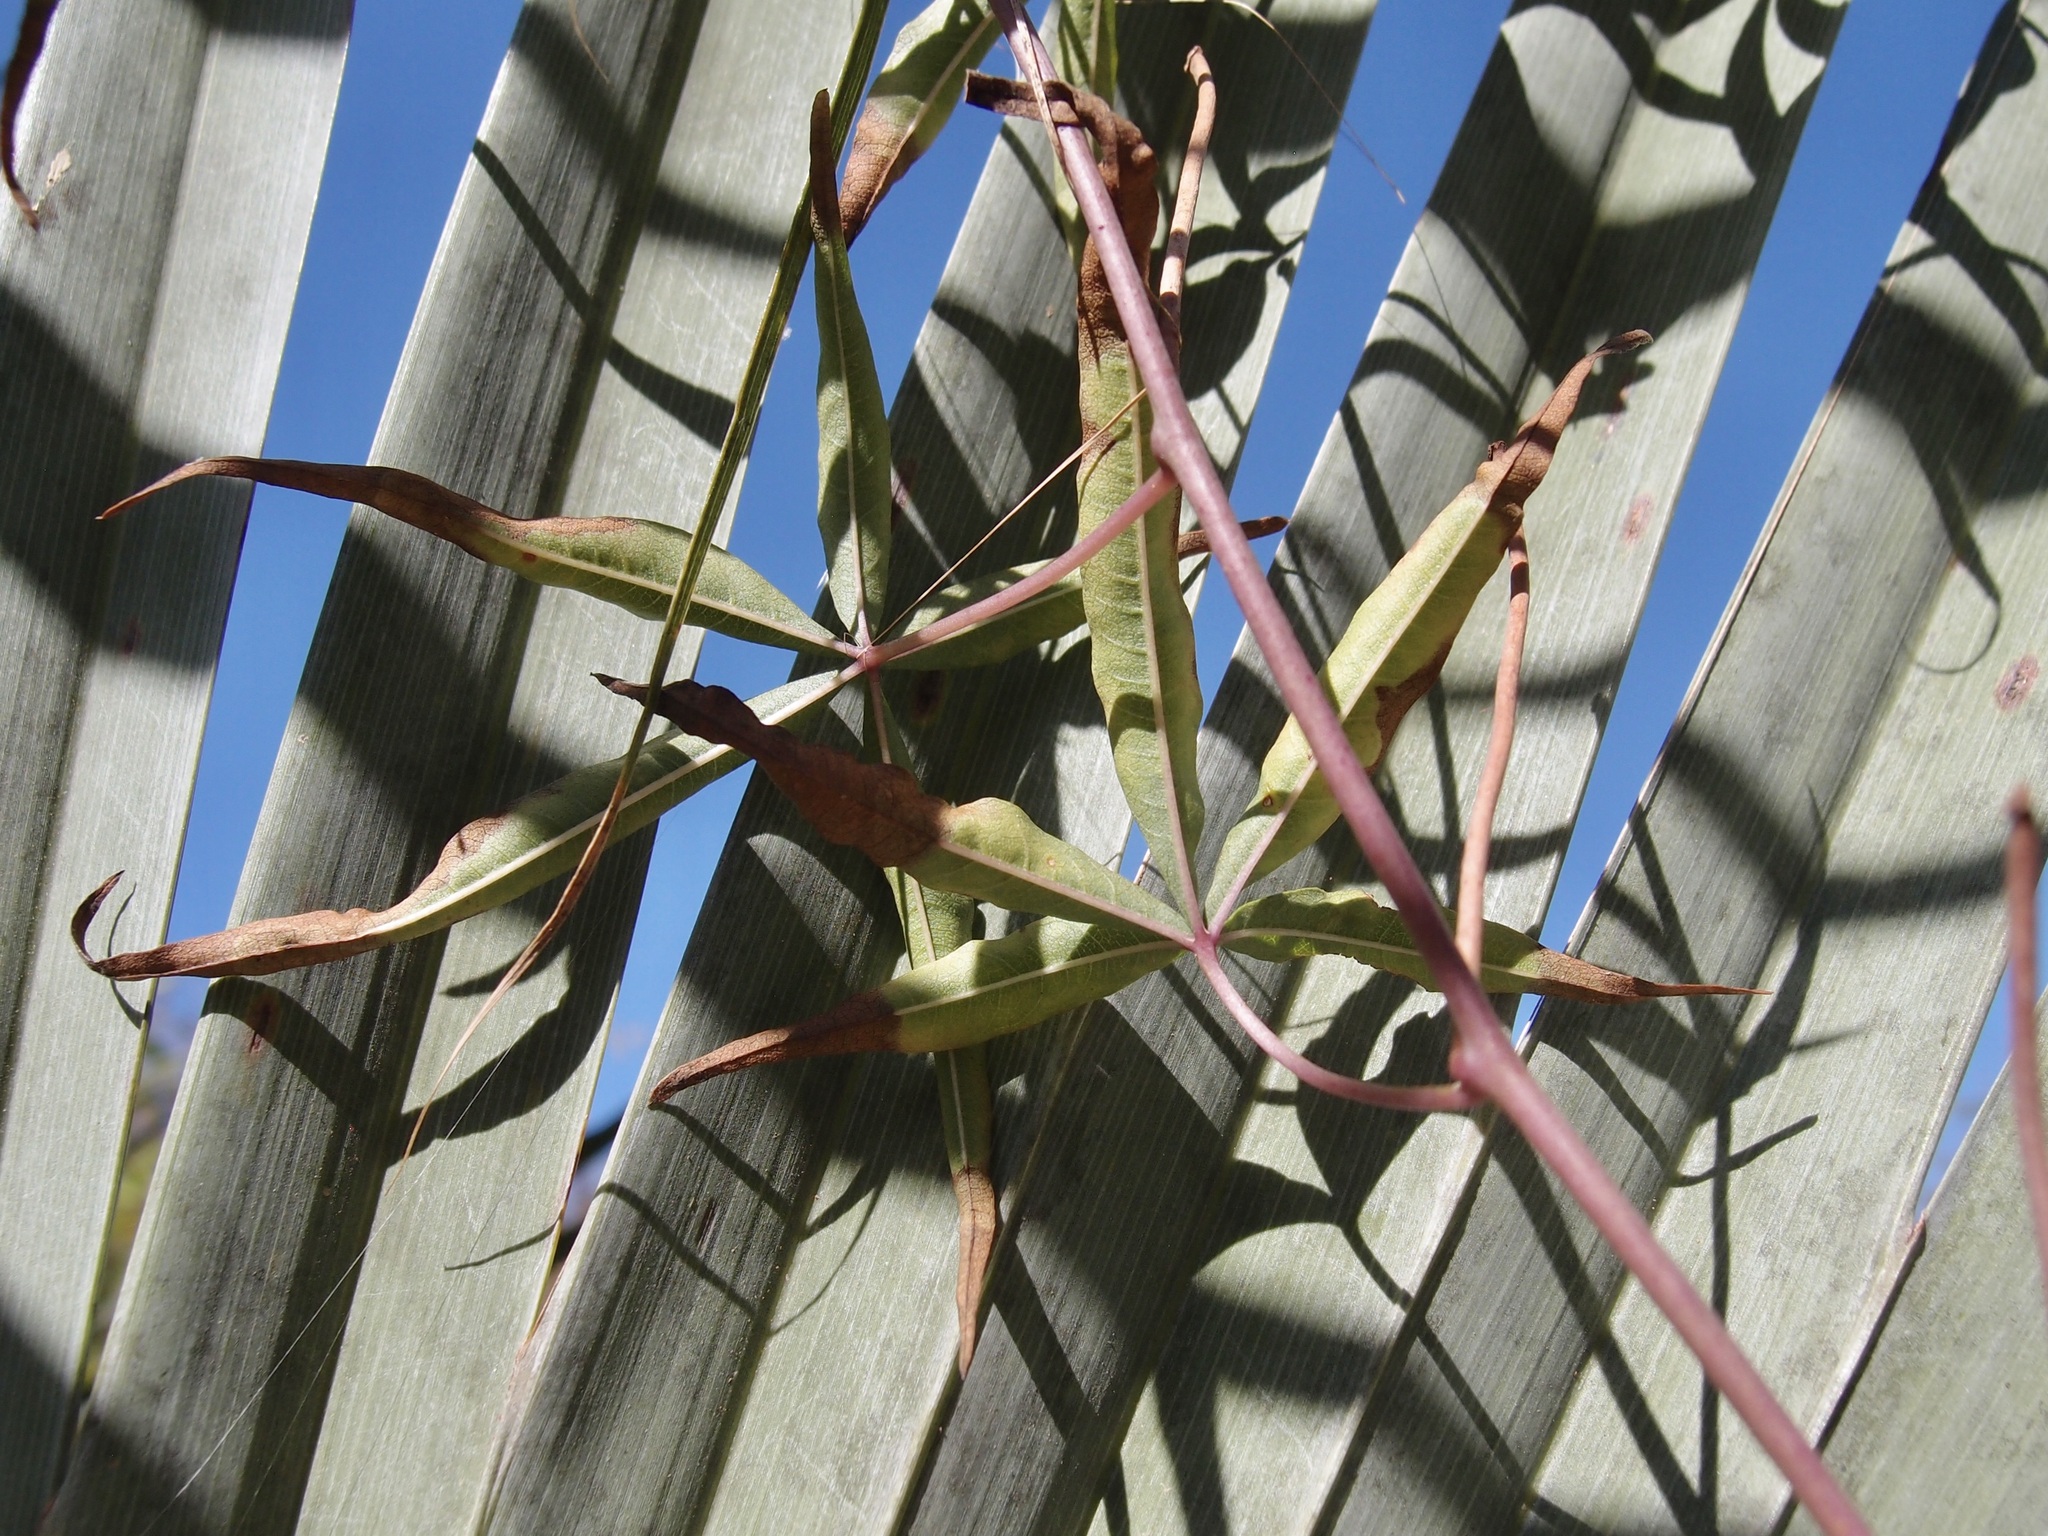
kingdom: Plantae
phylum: Tracheophyta
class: Magnoliopsida
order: Solanales
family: Convolvulaceae
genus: Distimake
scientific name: Distimake palmeri
